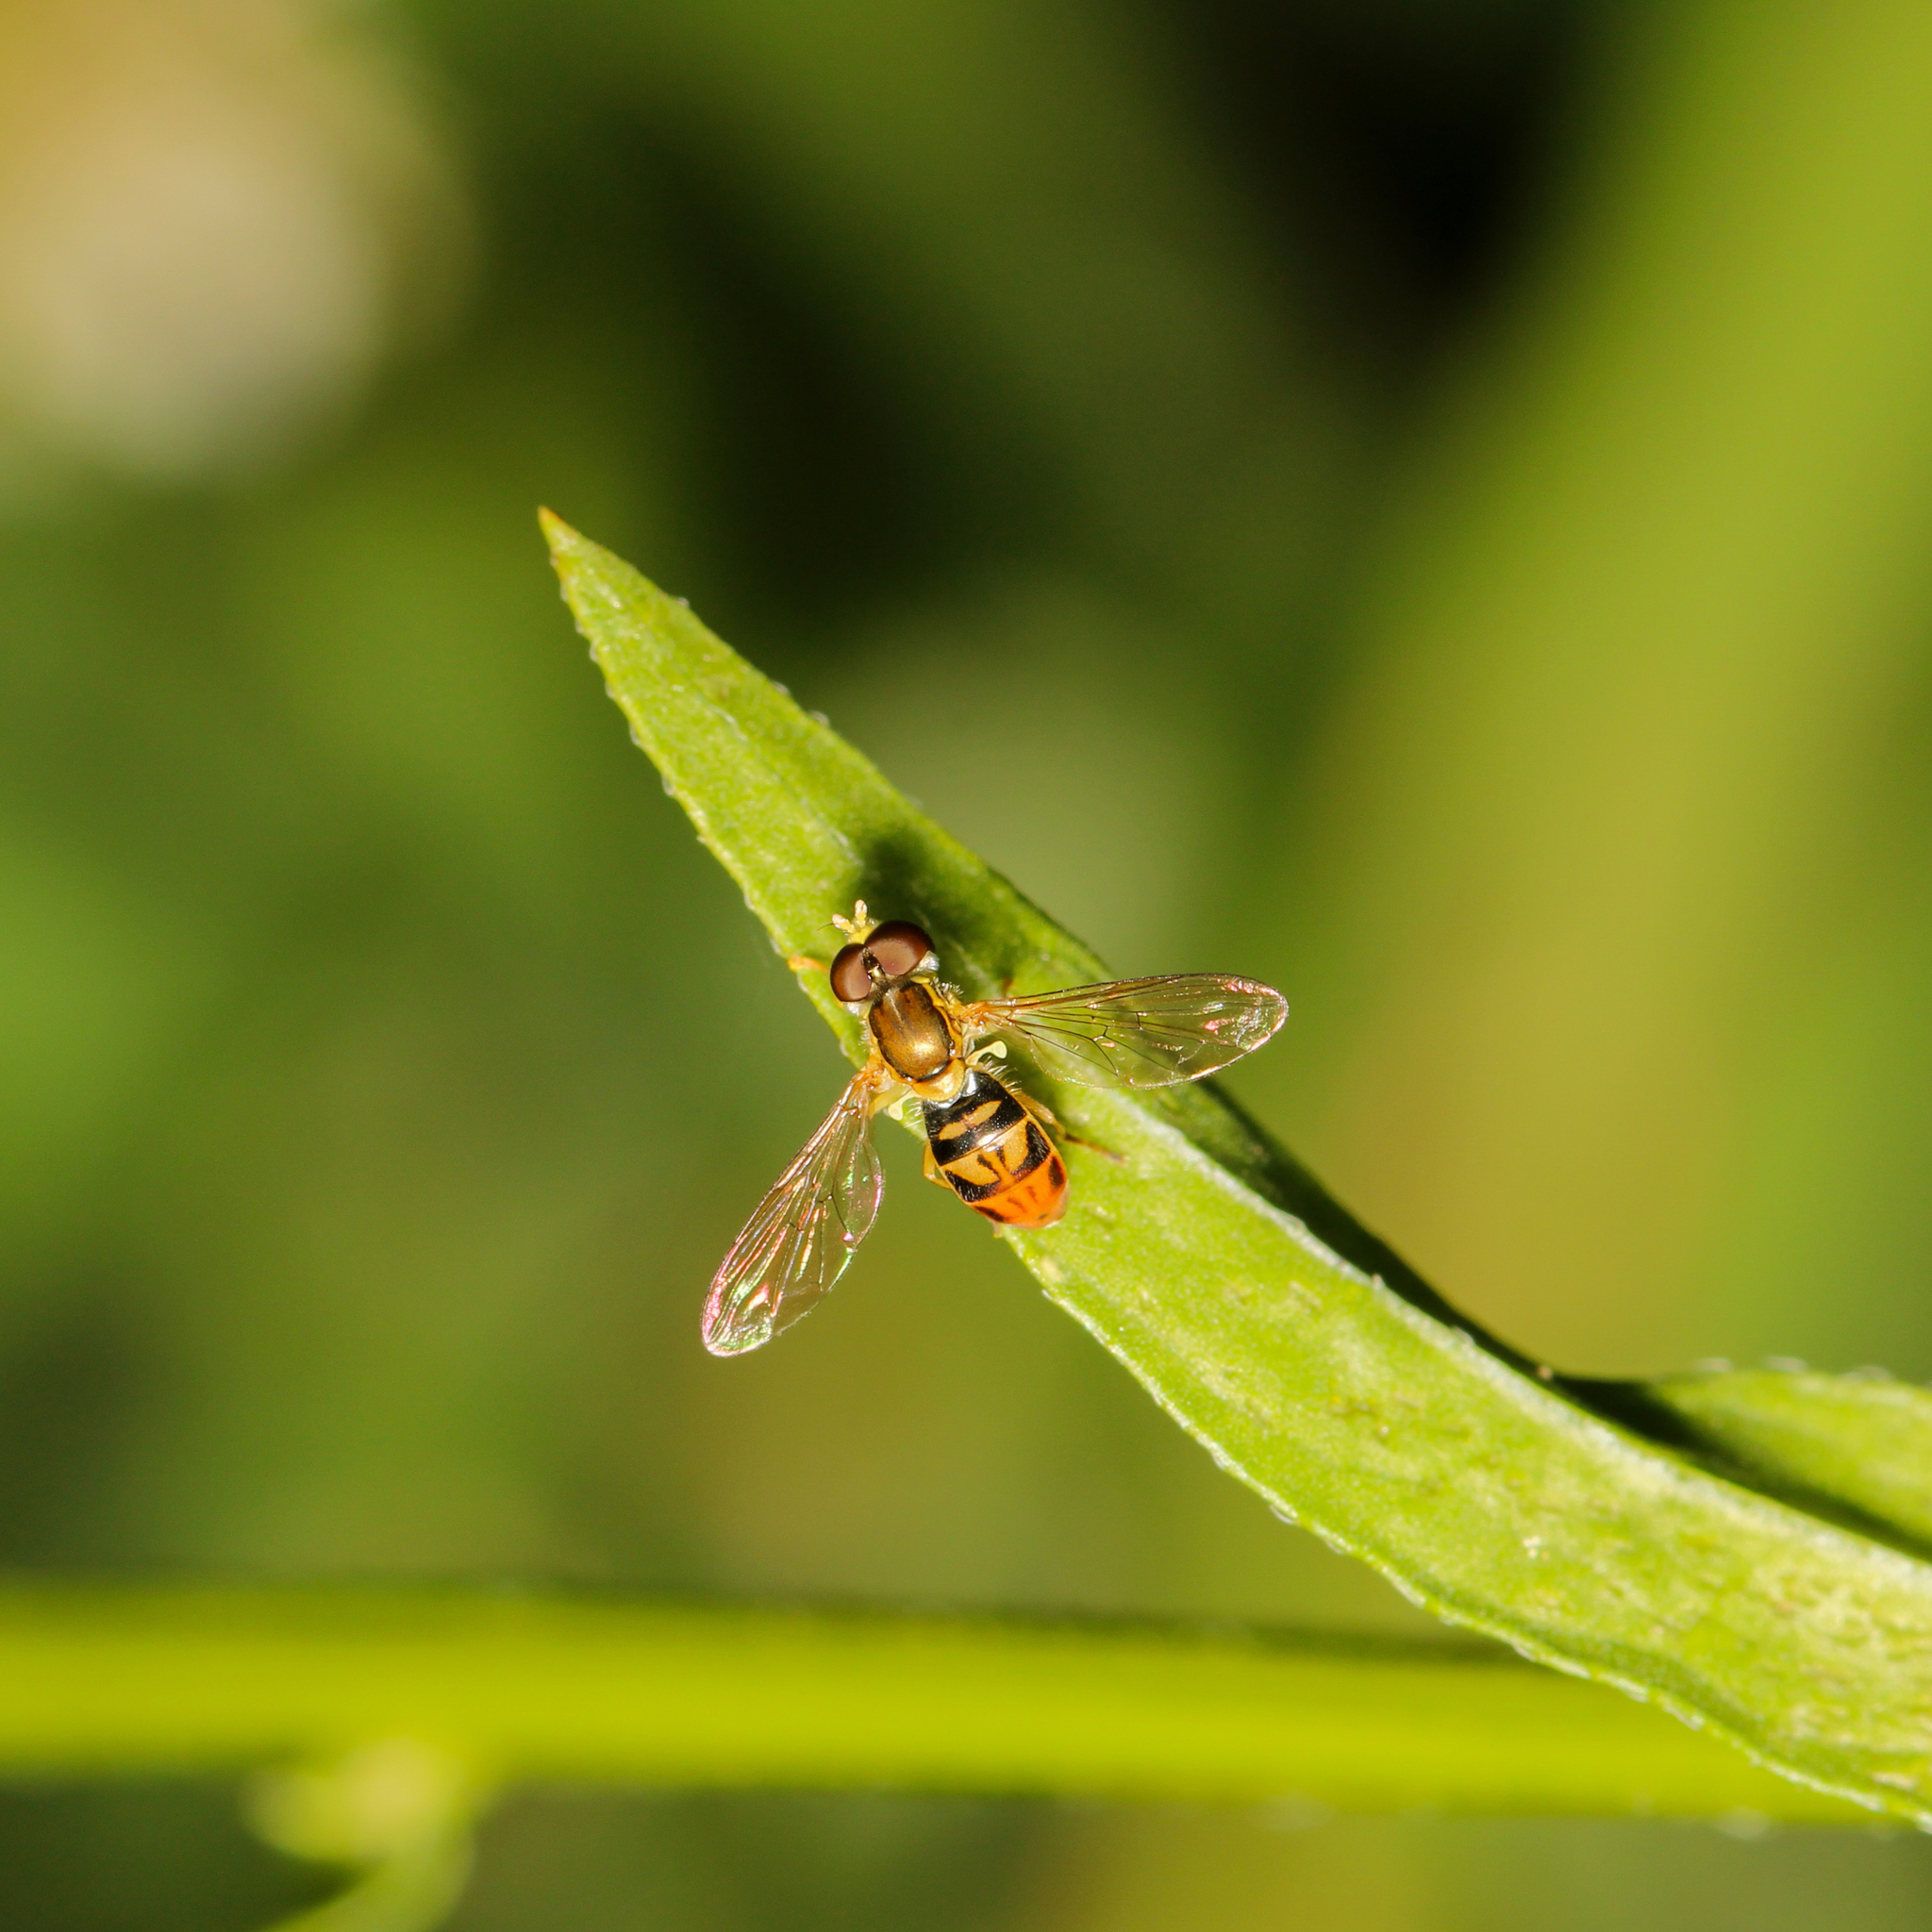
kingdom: Animalia
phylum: Arthropoda
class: Insecta
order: Diptera
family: Syrphidae
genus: Toxomerus
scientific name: Toxomerus marginatus
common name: Syrphid fly
